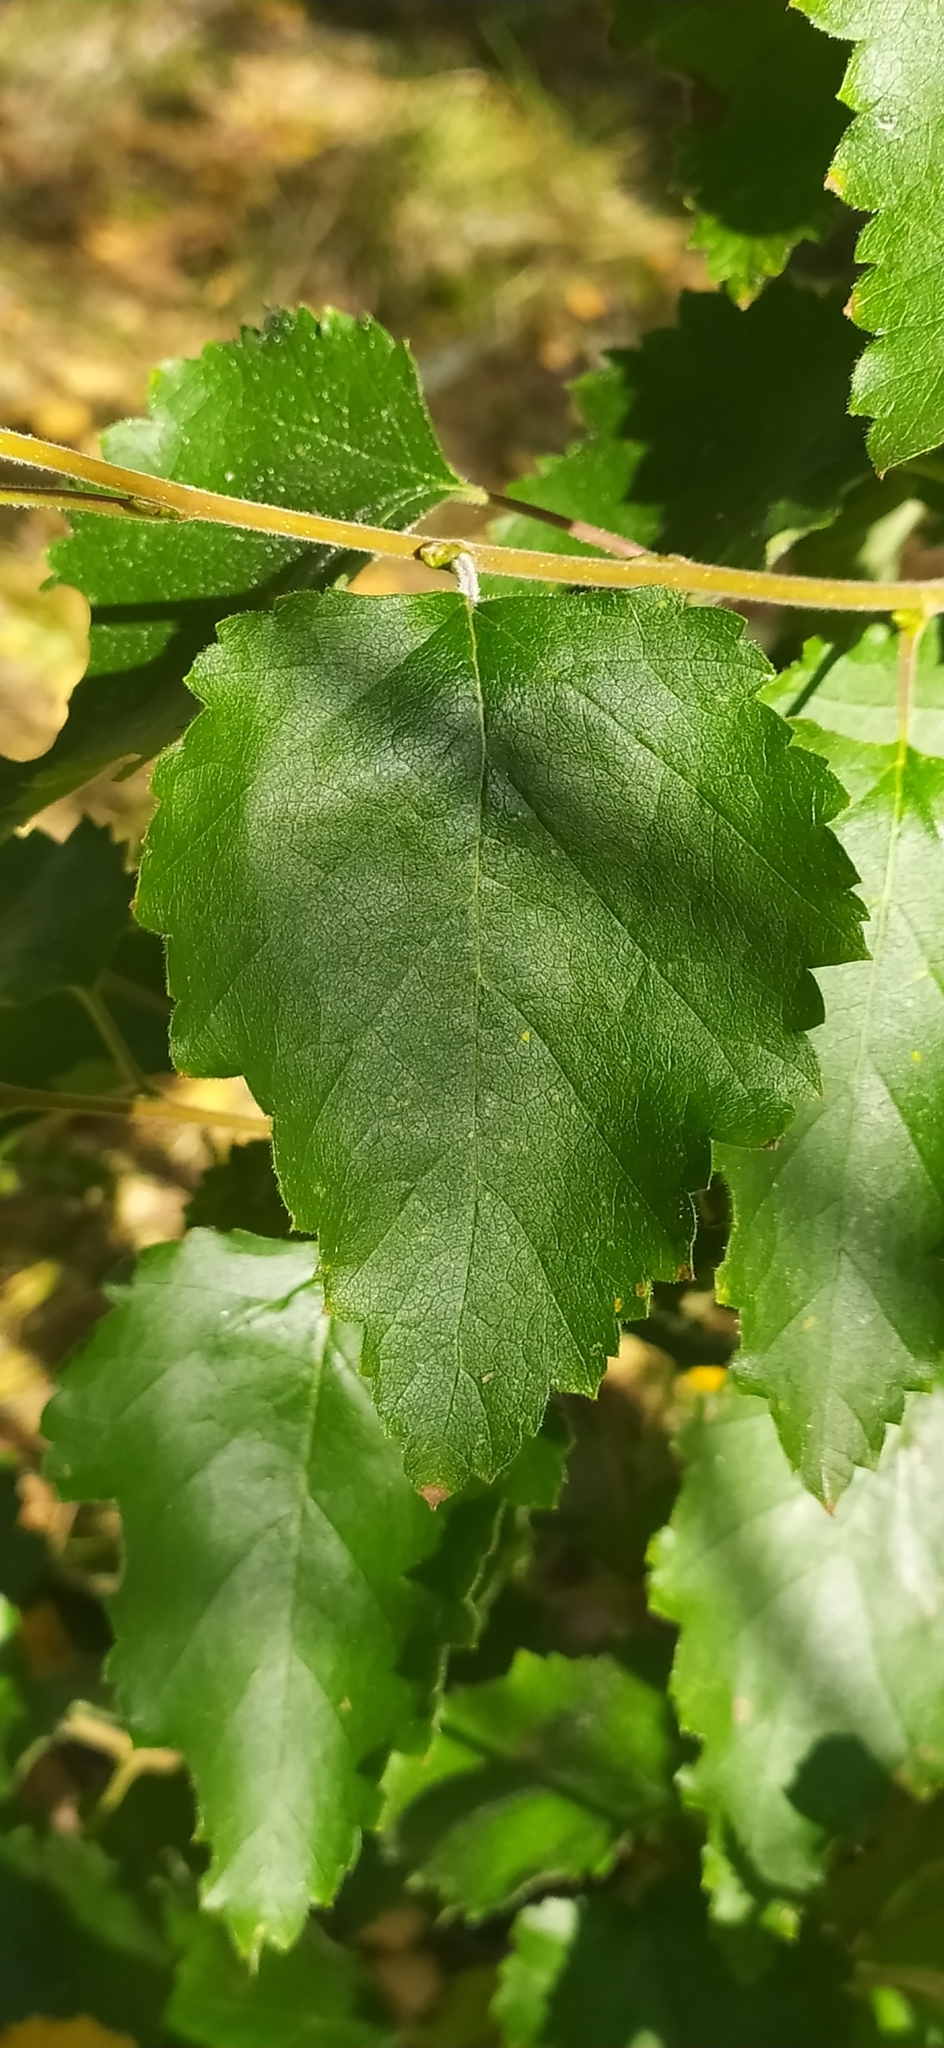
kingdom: Plantae
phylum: Tracheophyta
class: Magnoliopsida
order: Fagales
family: Betulaceae
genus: Betula
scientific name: Betula pubescens
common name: Downy birch
